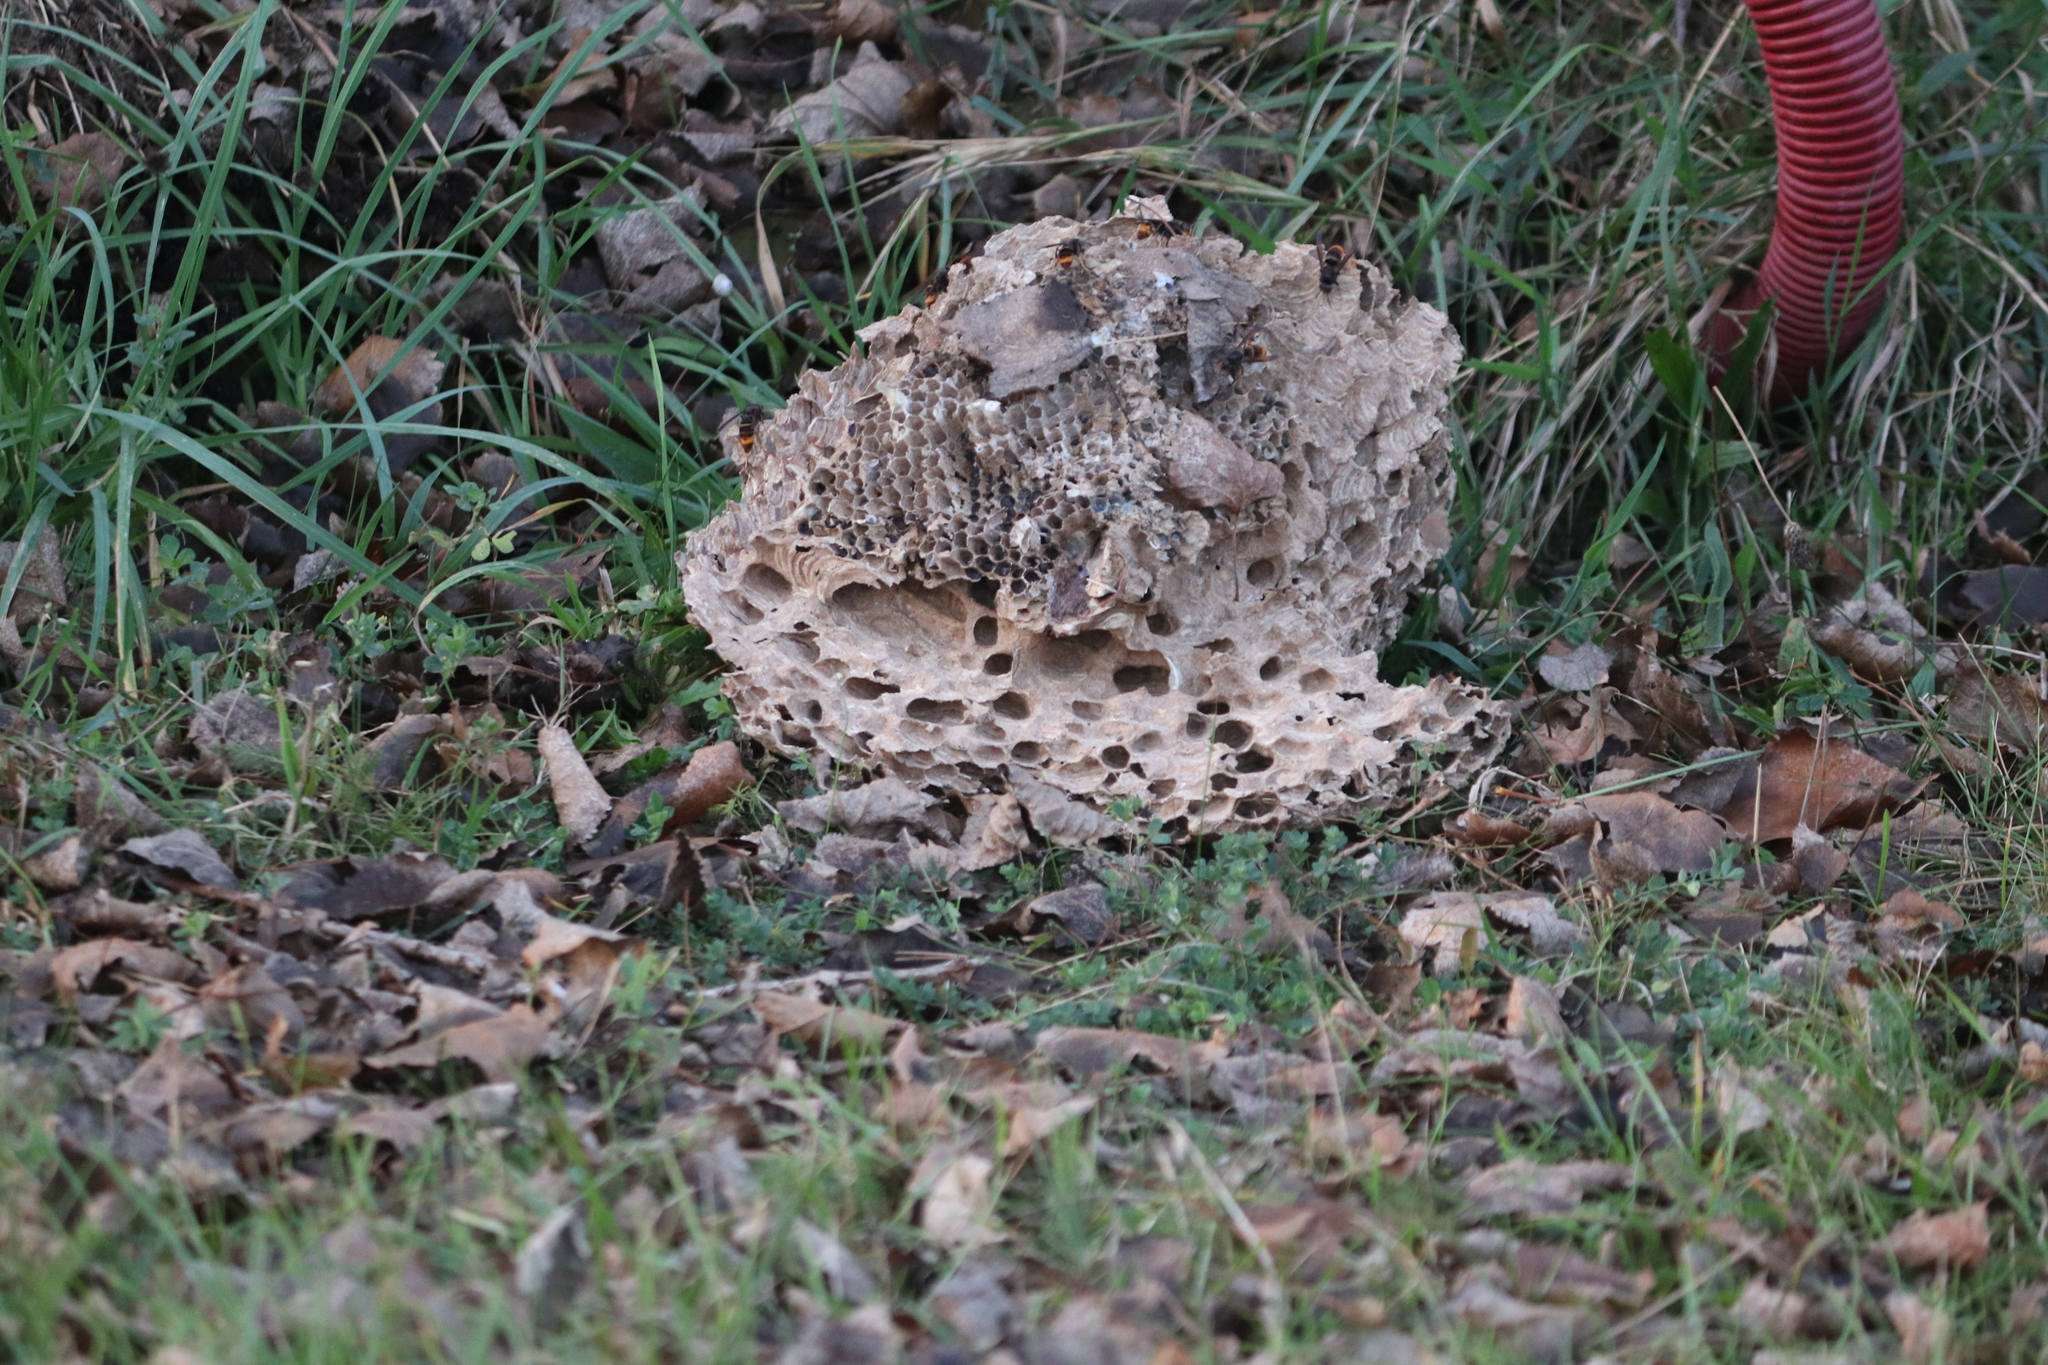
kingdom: Animalia
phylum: Arthropoda
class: Insecta
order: Hymenoptera
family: Vespidae
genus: Vespa
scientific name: Vespa velutina
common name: Asian hornet
